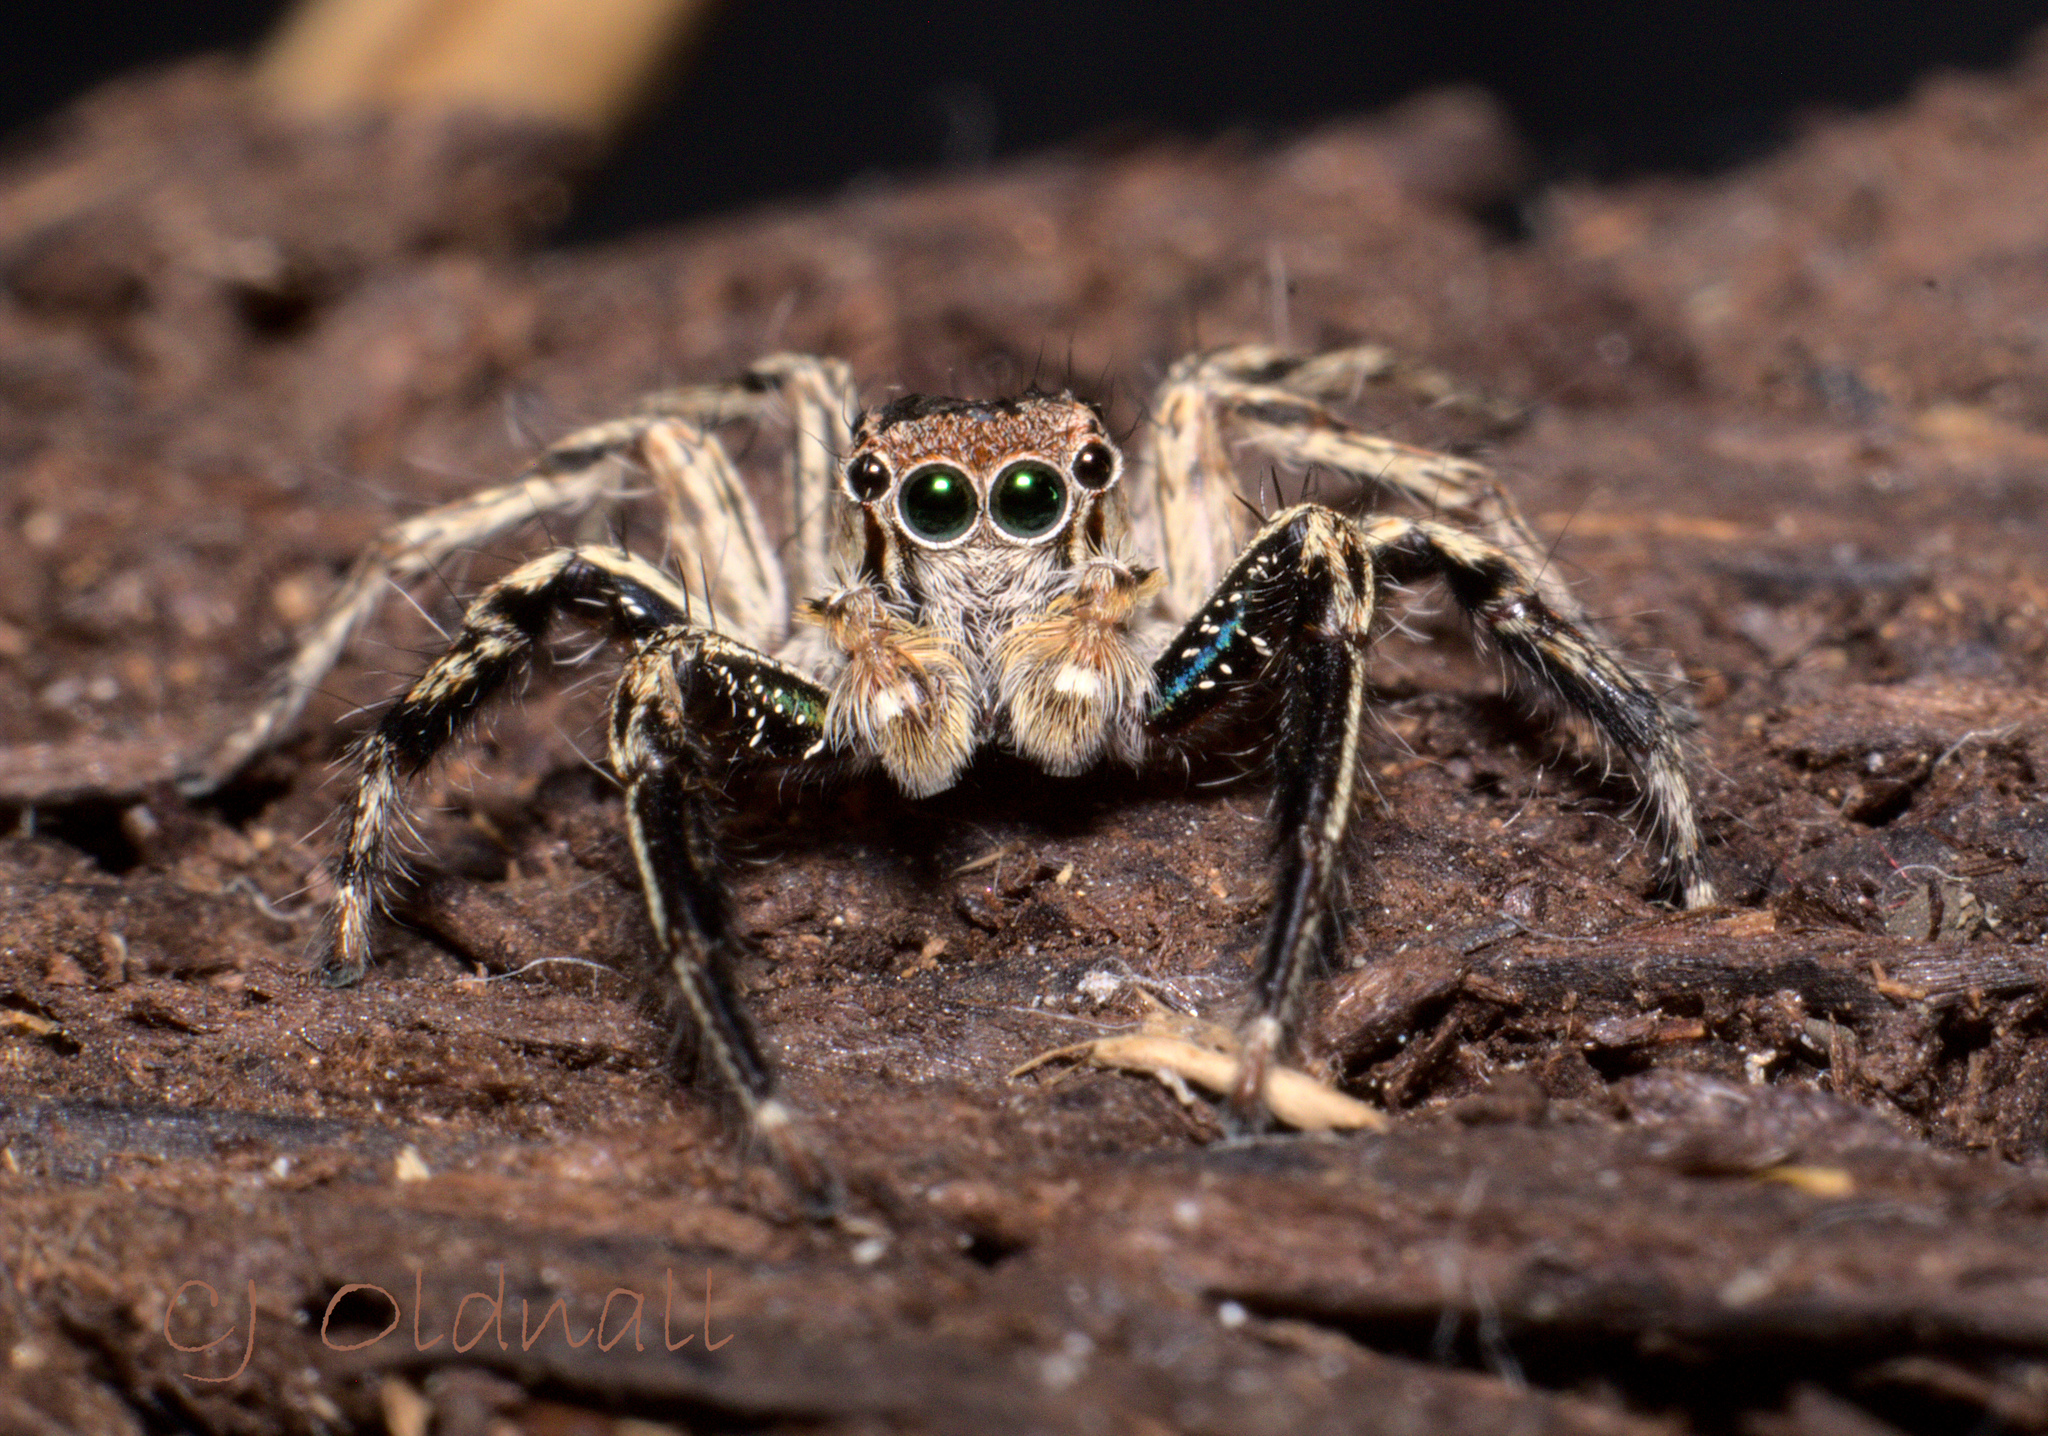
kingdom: Animalia
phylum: Arthropoda
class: Arachnida
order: Araneae
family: Salticidae
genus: Plexippus
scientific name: Plexippus petersi
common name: Jumping spider
